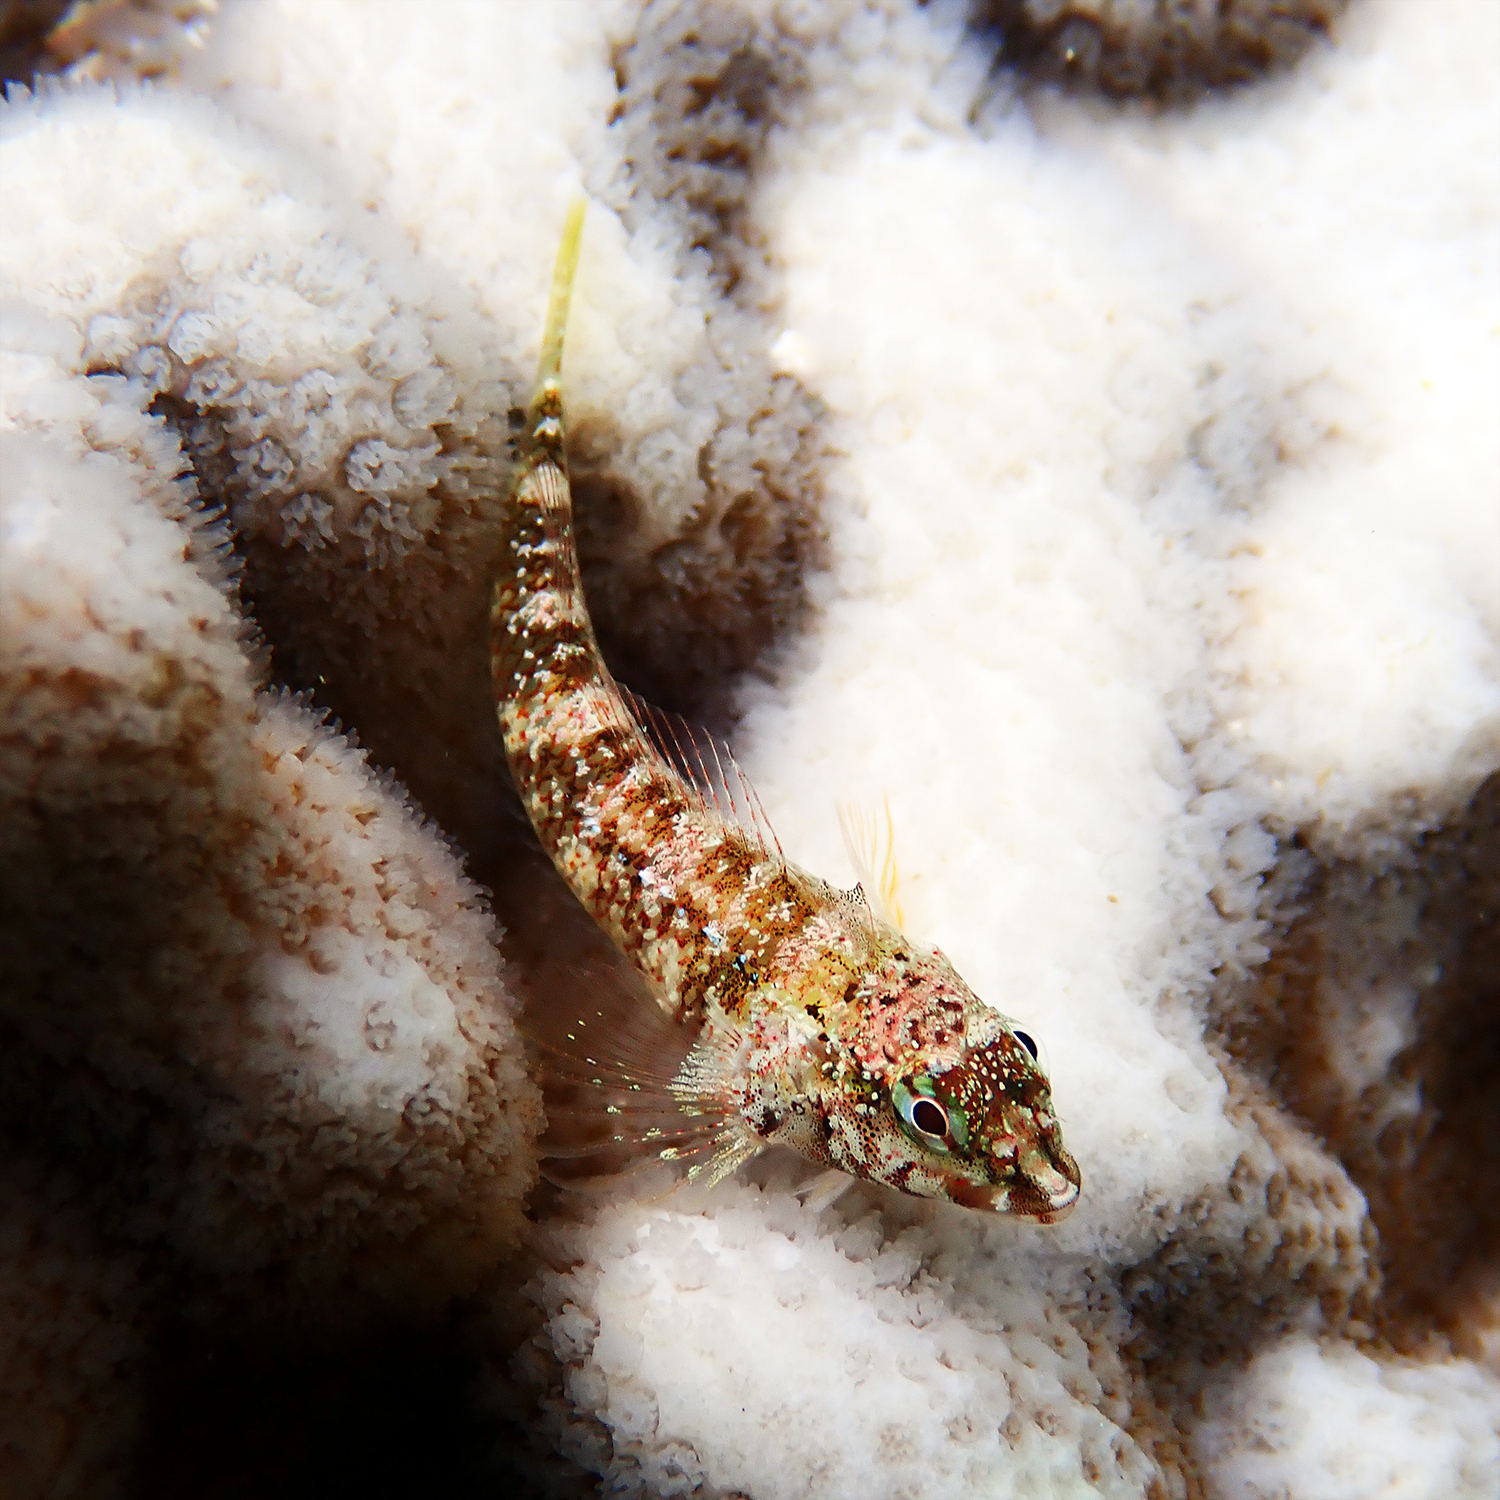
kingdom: Animalia
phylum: Chordata
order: Perciformes
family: Tripterygiidae
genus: Enneapterygius
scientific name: Enneapterygius rufopileus
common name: Lord howe black-head triplefin
